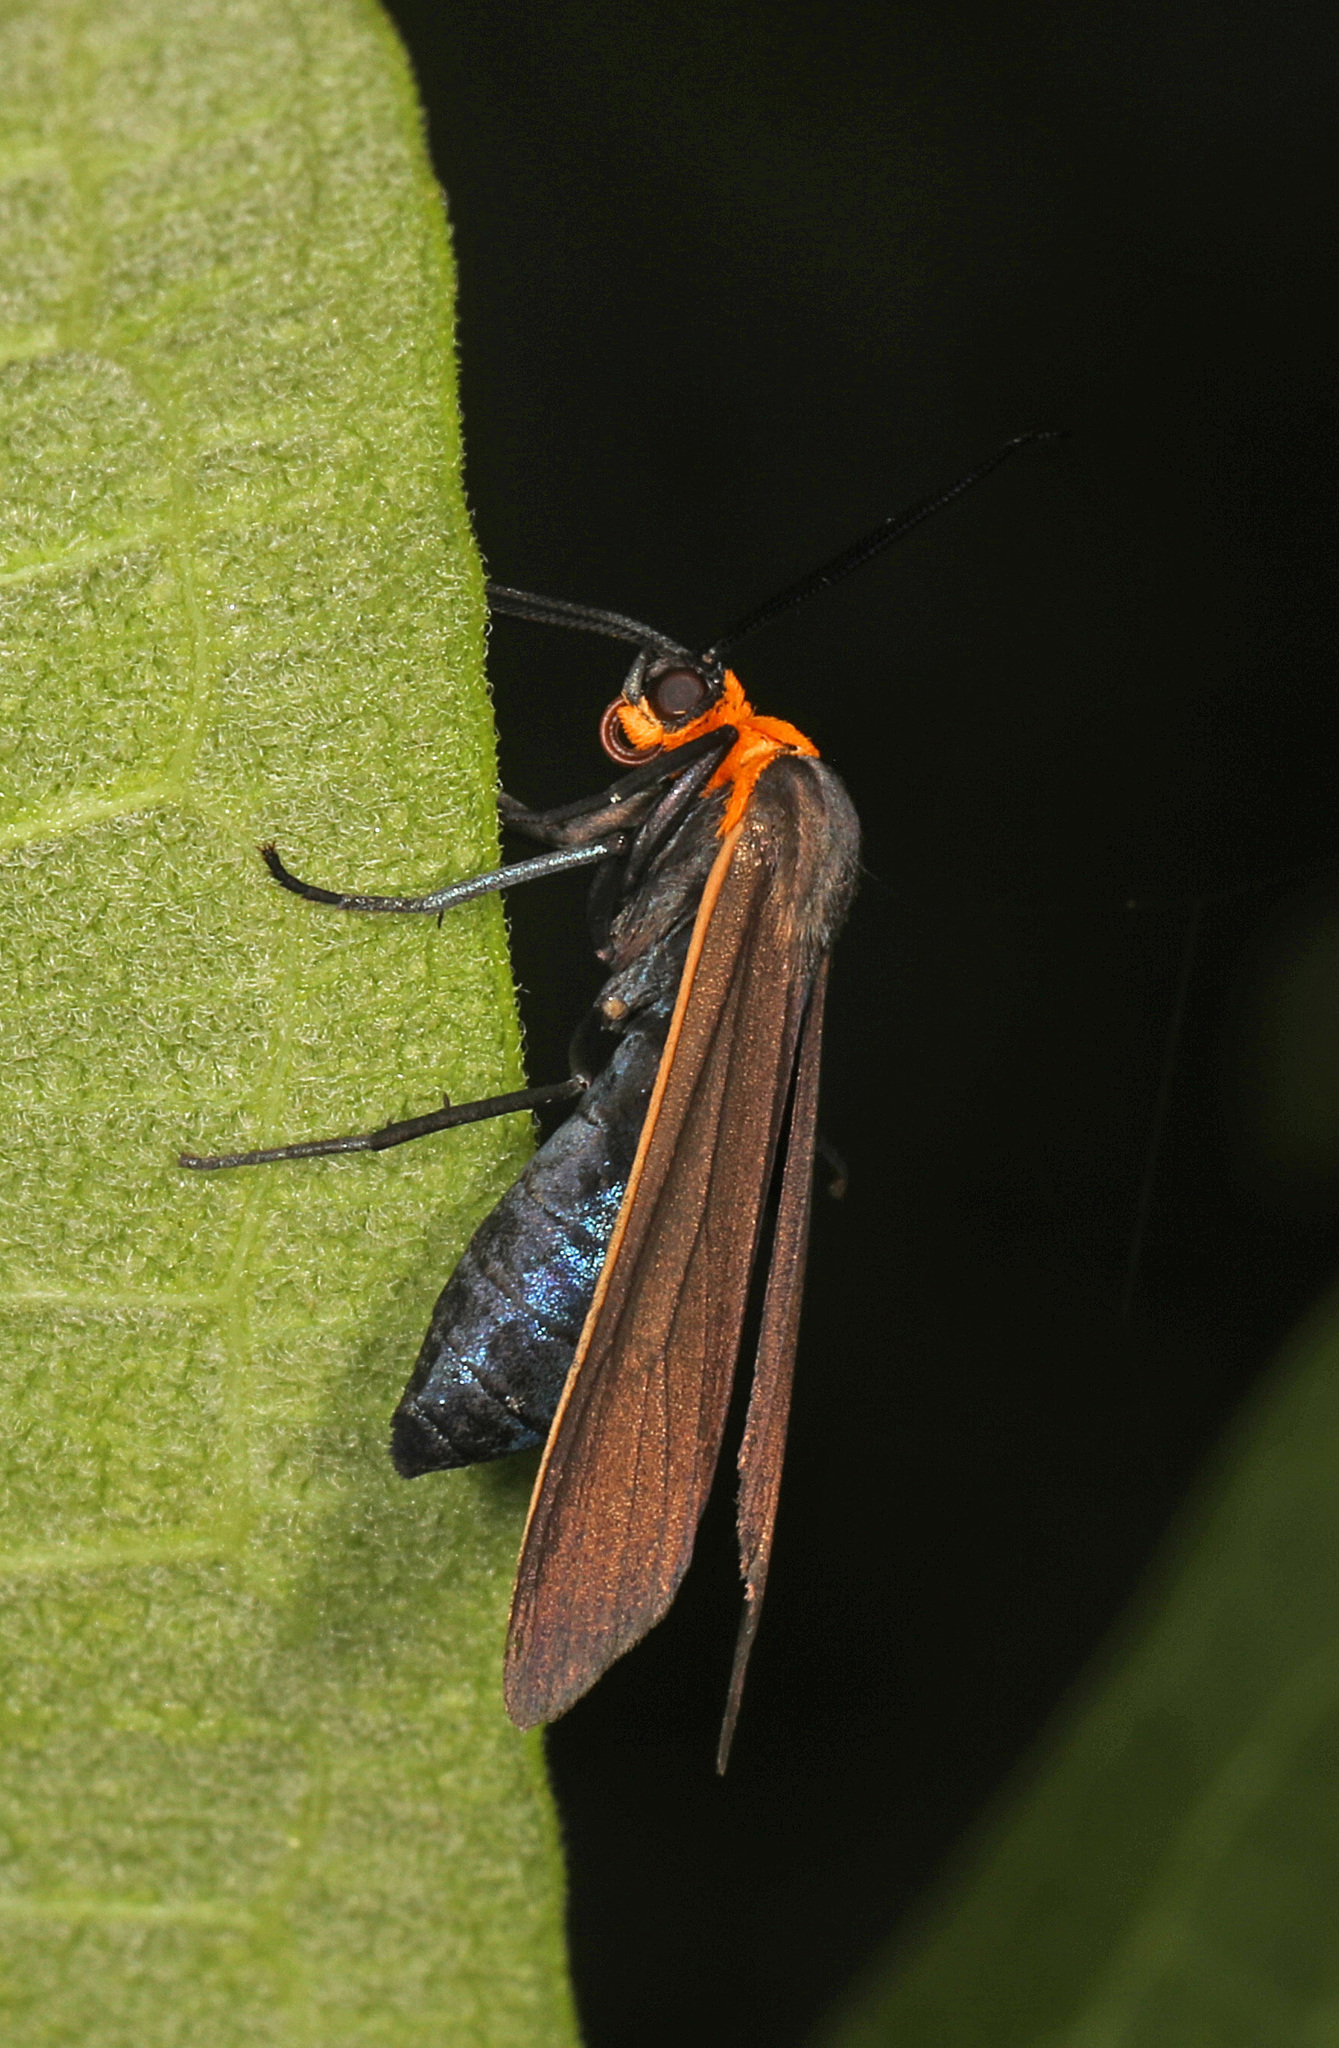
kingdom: Animalia
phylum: Arthropoda
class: Insecta
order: Lepidoptera
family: Erebidae
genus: Cisseps
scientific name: Cisseps fulvicollis
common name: Yellow-collared scape moth
